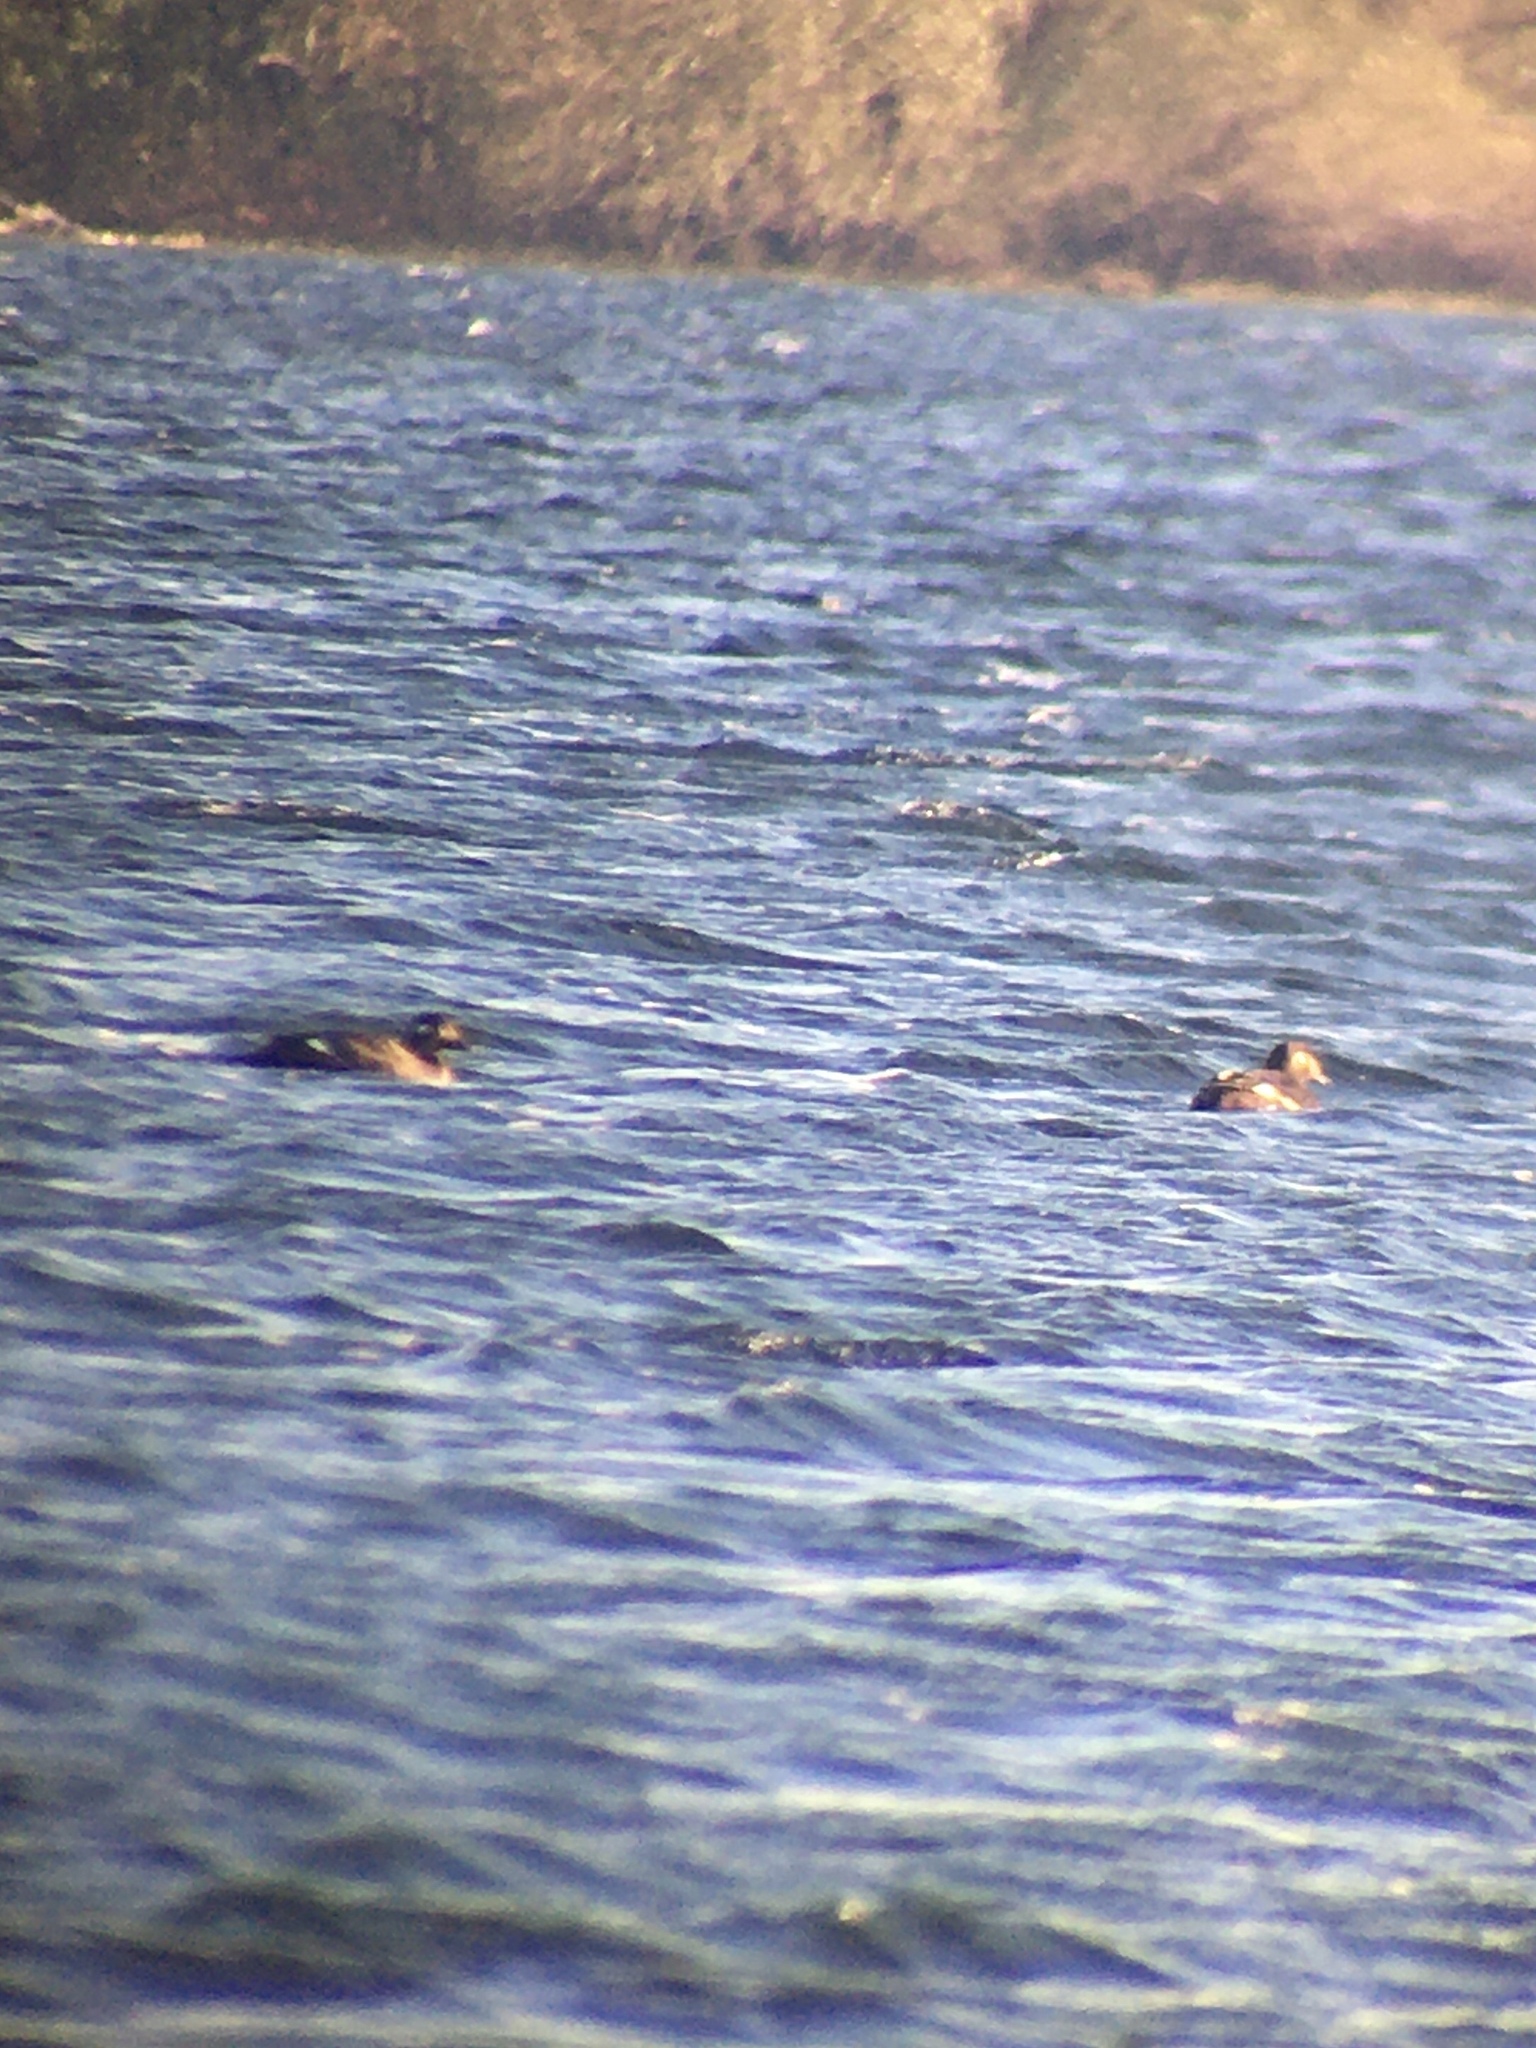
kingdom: Animalia
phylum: Chordata
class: Aves
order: Anseriformes
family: Anatidae
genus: Melanitta
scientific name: Melanitta deglandi
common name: White-winged scoter
